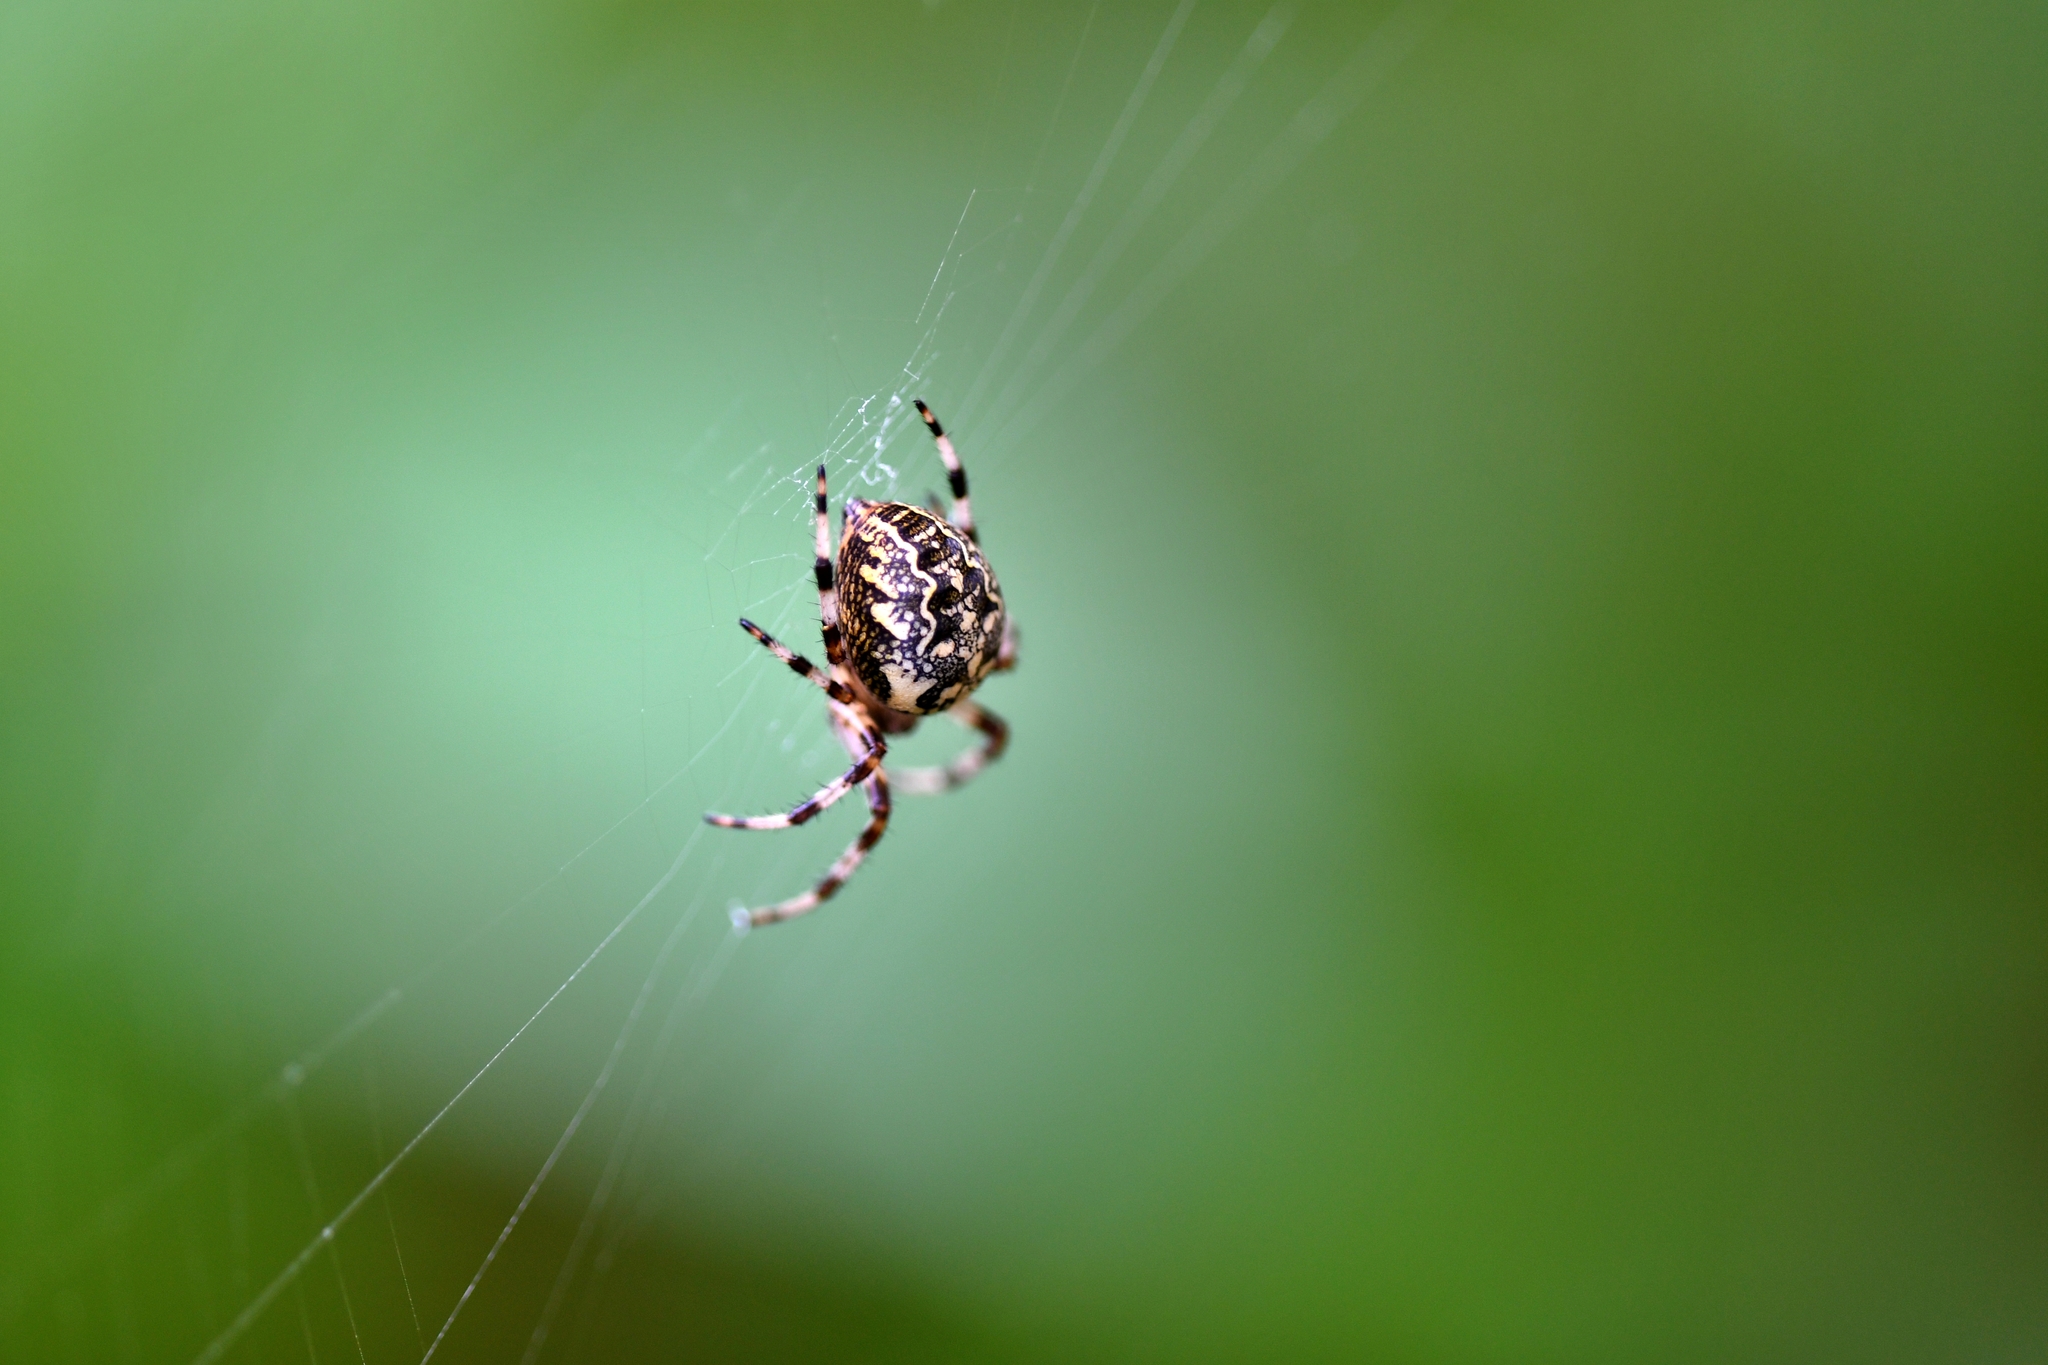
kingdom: Animalia
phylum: Arthropoda
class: Arachnida
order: Araneae
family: Araneidae
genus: Araneus
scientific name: Araneus marmoreus
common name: Marbled orbweaver
